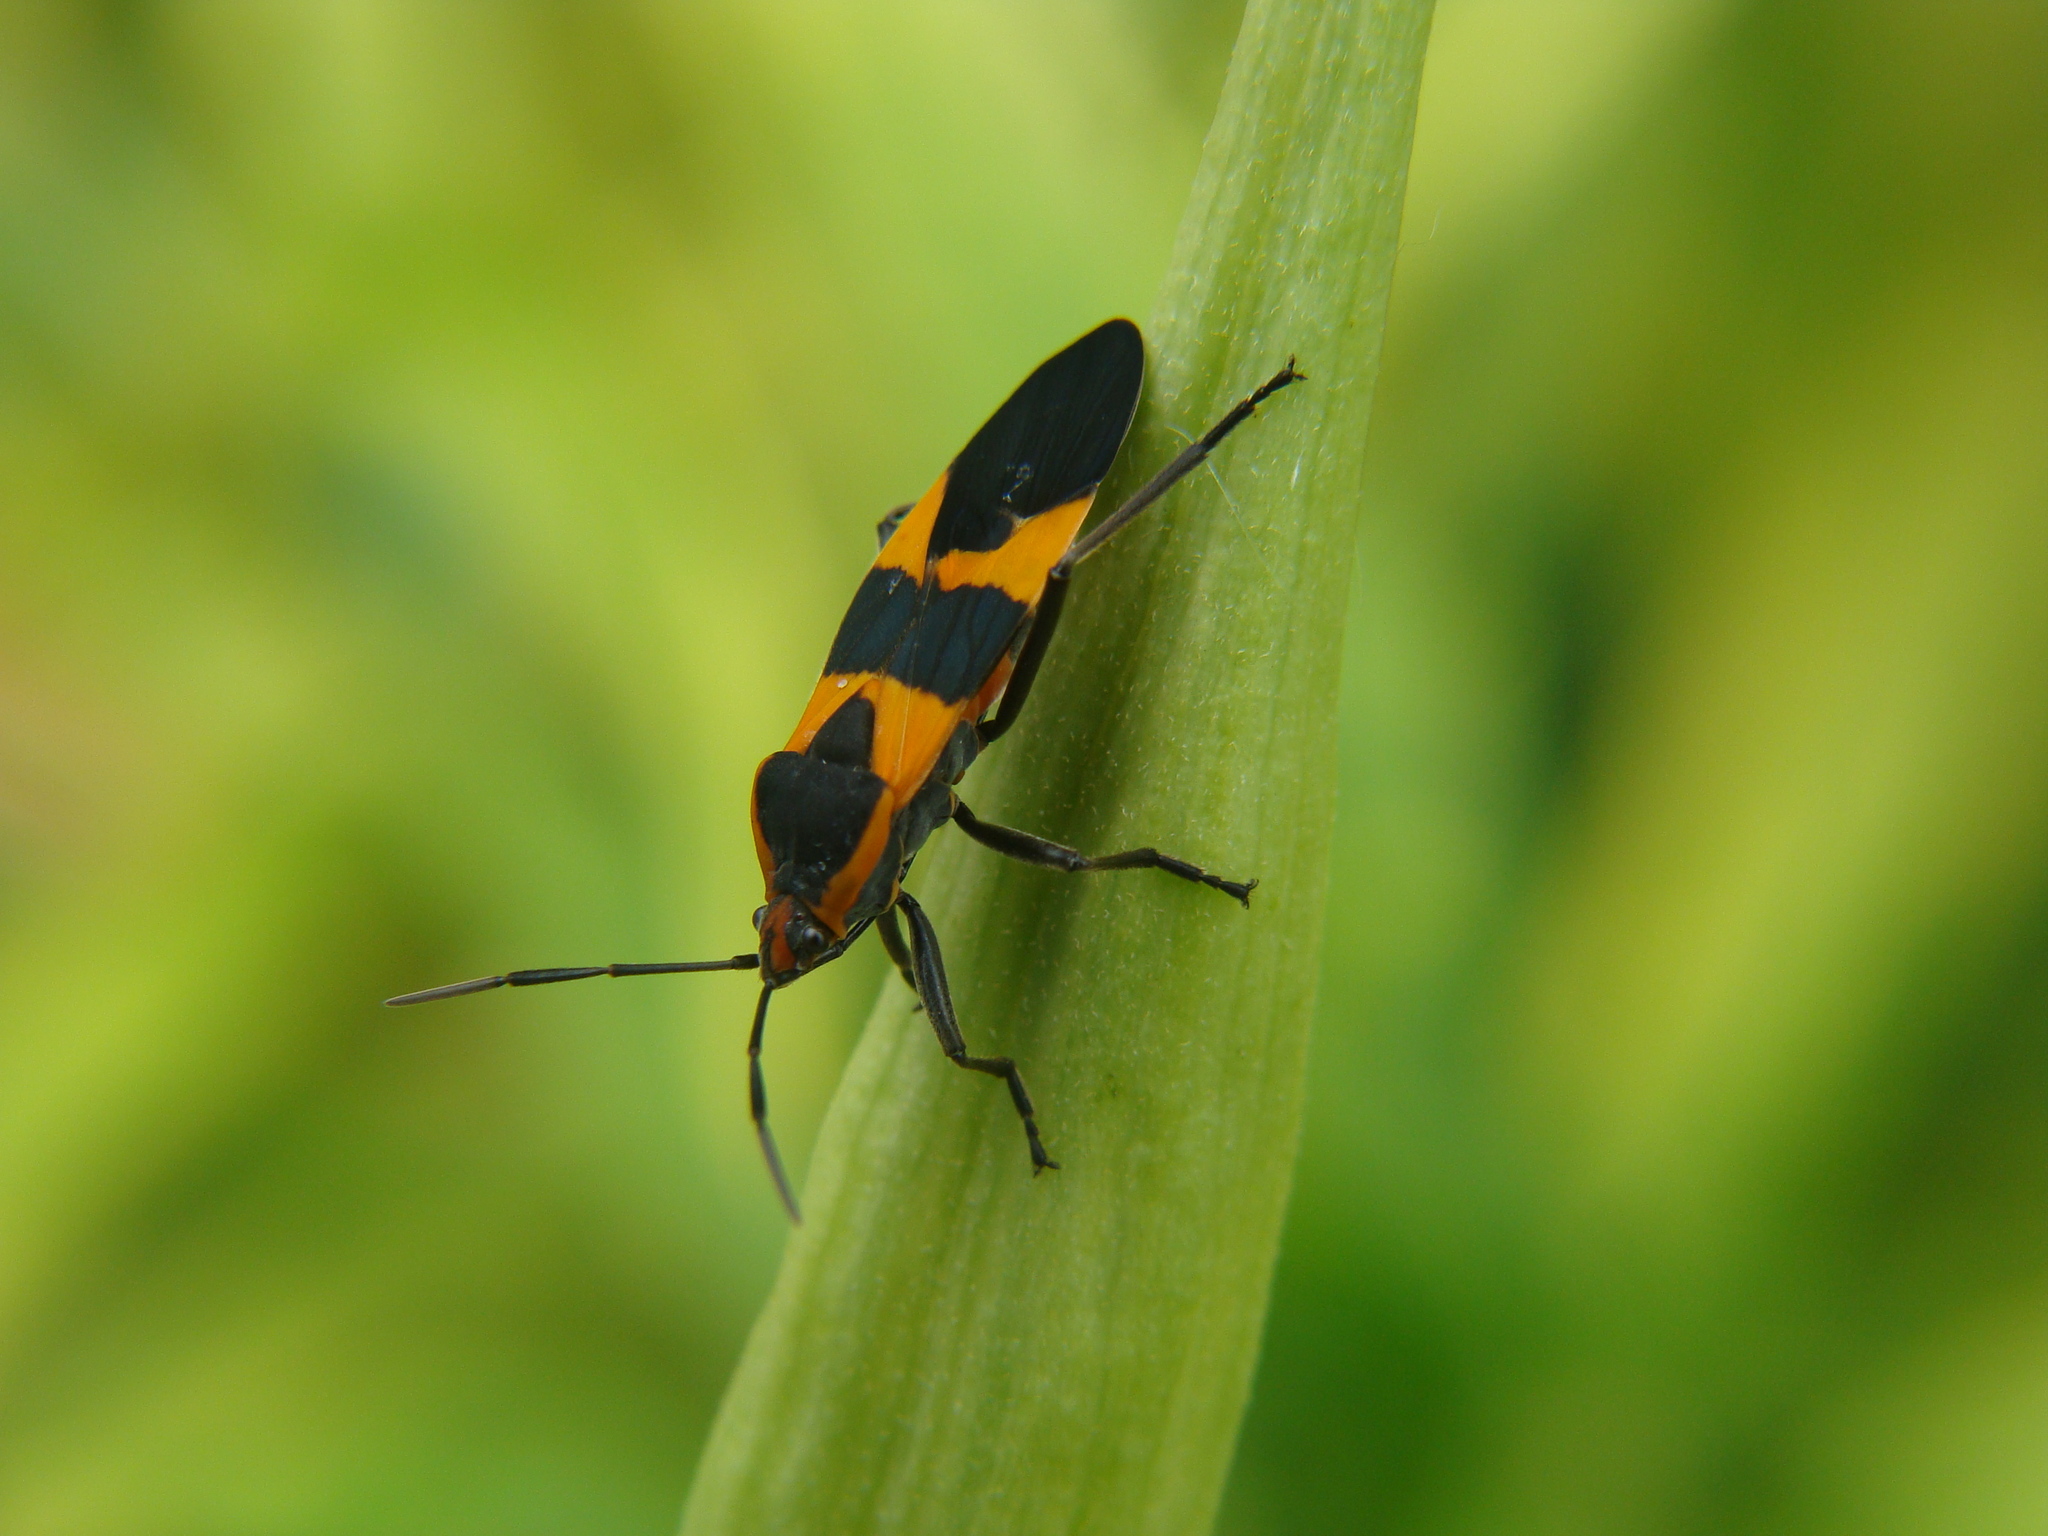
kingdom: Animalia
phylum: Arthropoda
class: Insecta
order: Hemiptera
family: Lygaeidae
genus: Oncopeltus
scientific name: Oncopeltus fasciatus
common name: Large milkweed bug
